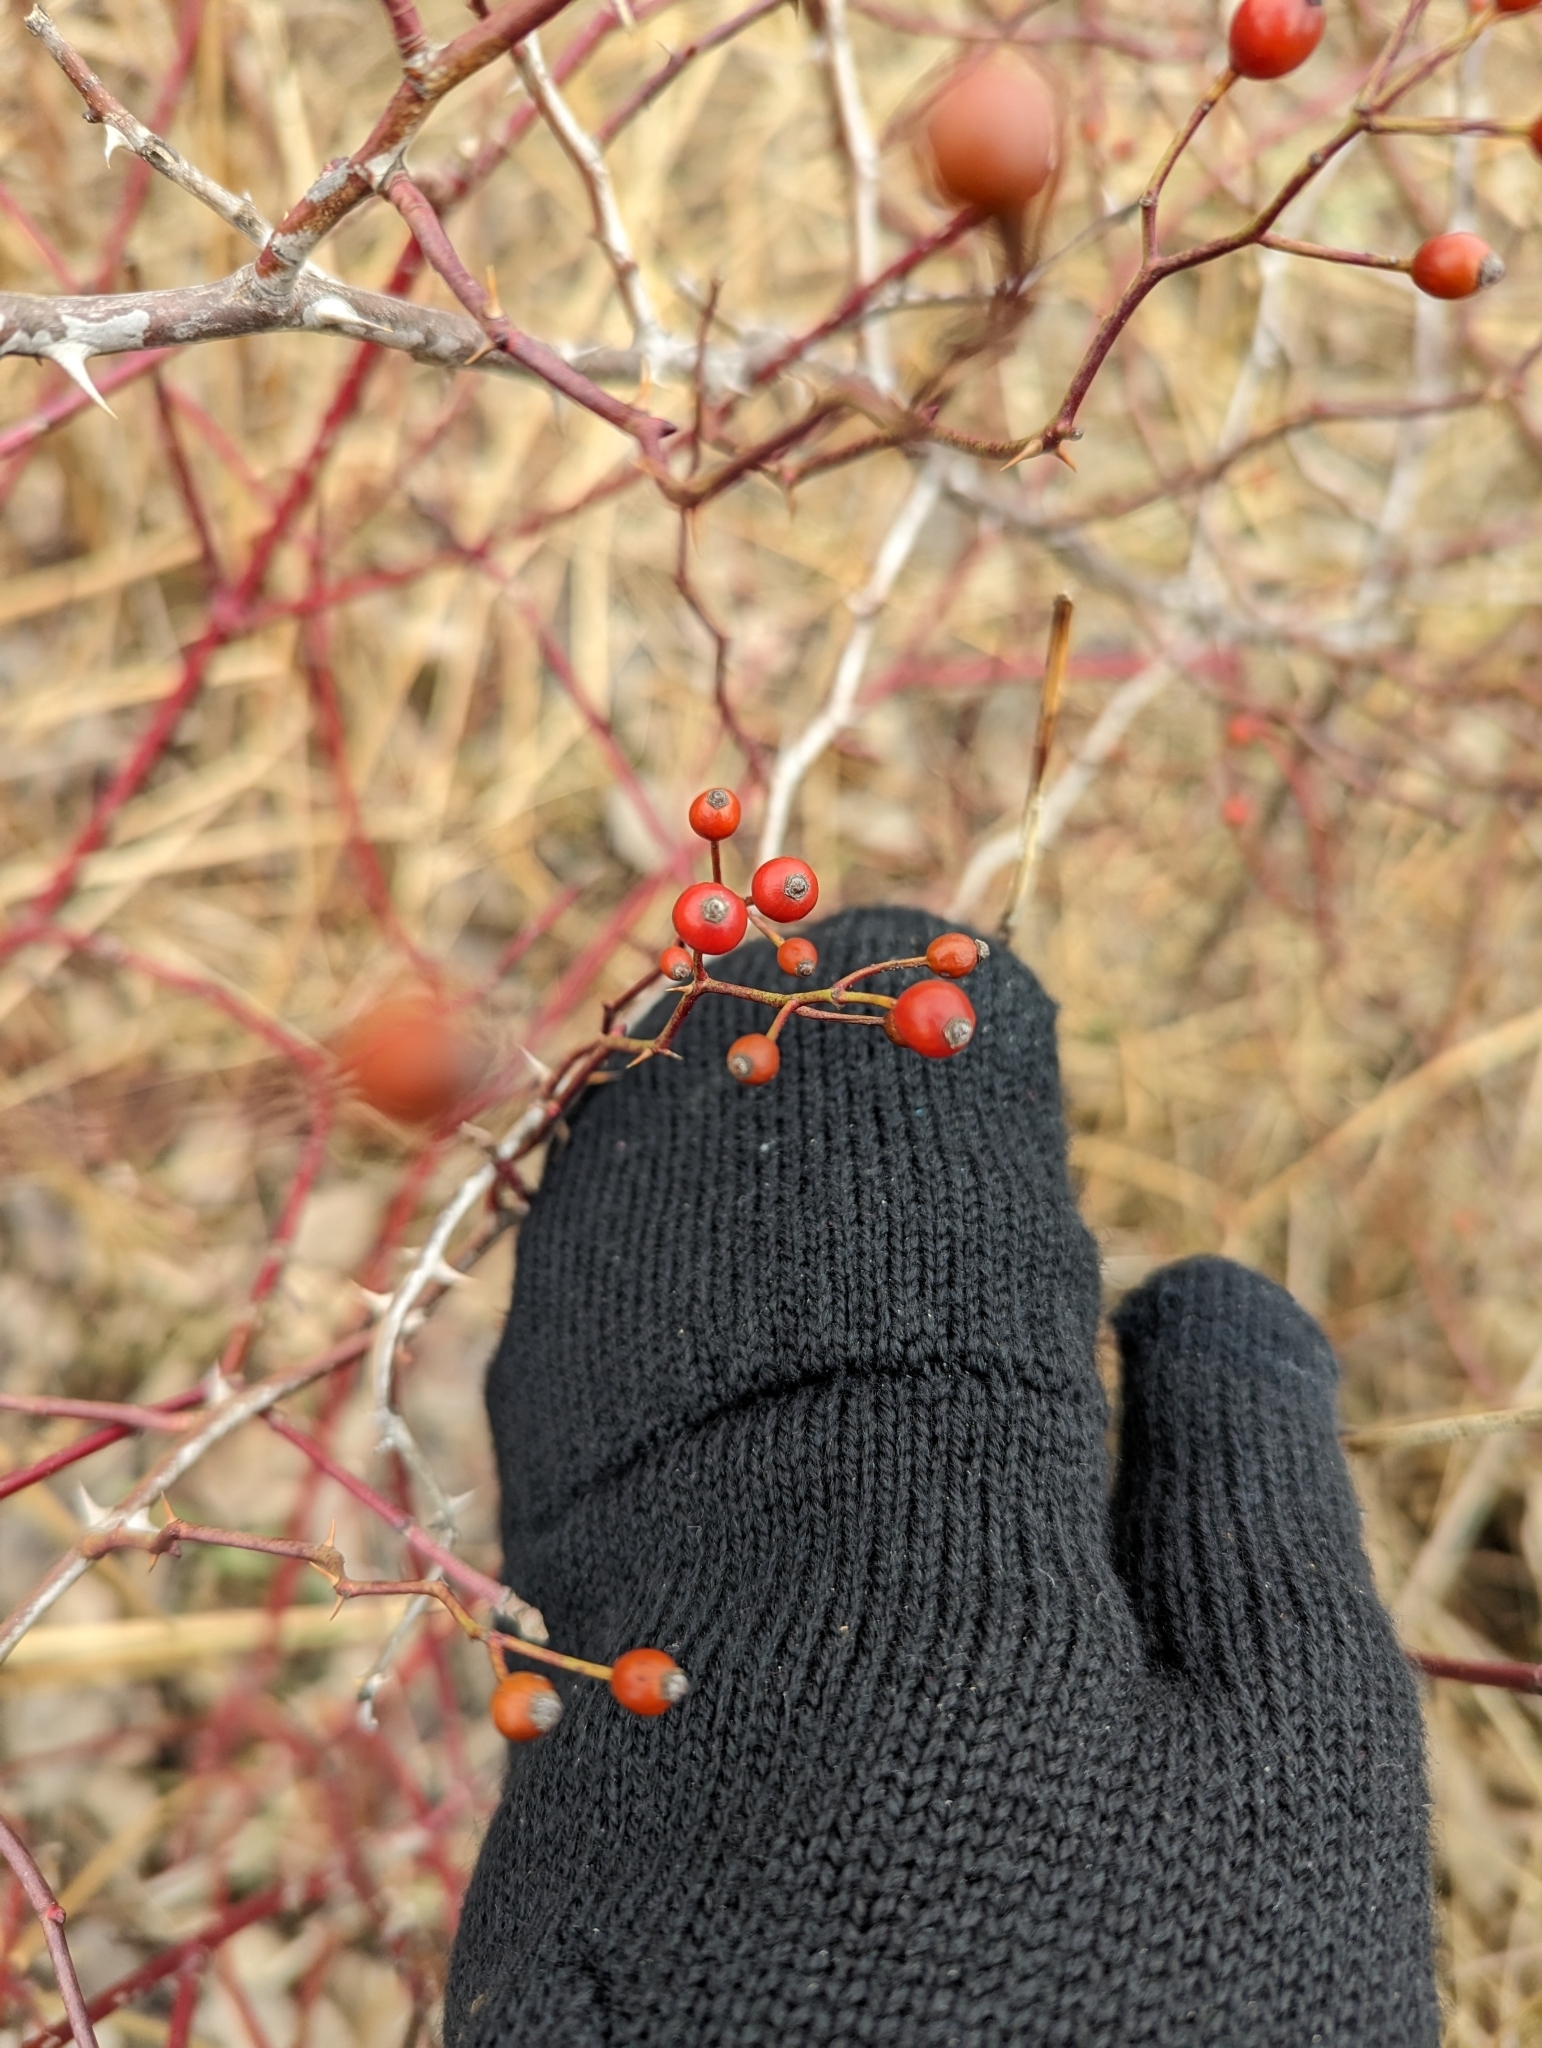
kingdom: Plantae
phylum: Tracheophyta
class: Magnoliopsida
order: Rosales
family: Rosaceae
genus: Rosa
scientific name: Rosa multiflora
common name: Multiflora rose
